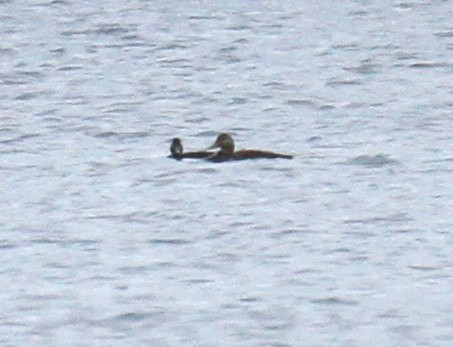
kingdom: Animalia
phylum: Chordata
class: Aves
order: Anseriformes
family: Anatidae
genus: Anas
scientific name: Anas rubripes
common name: American black duck
